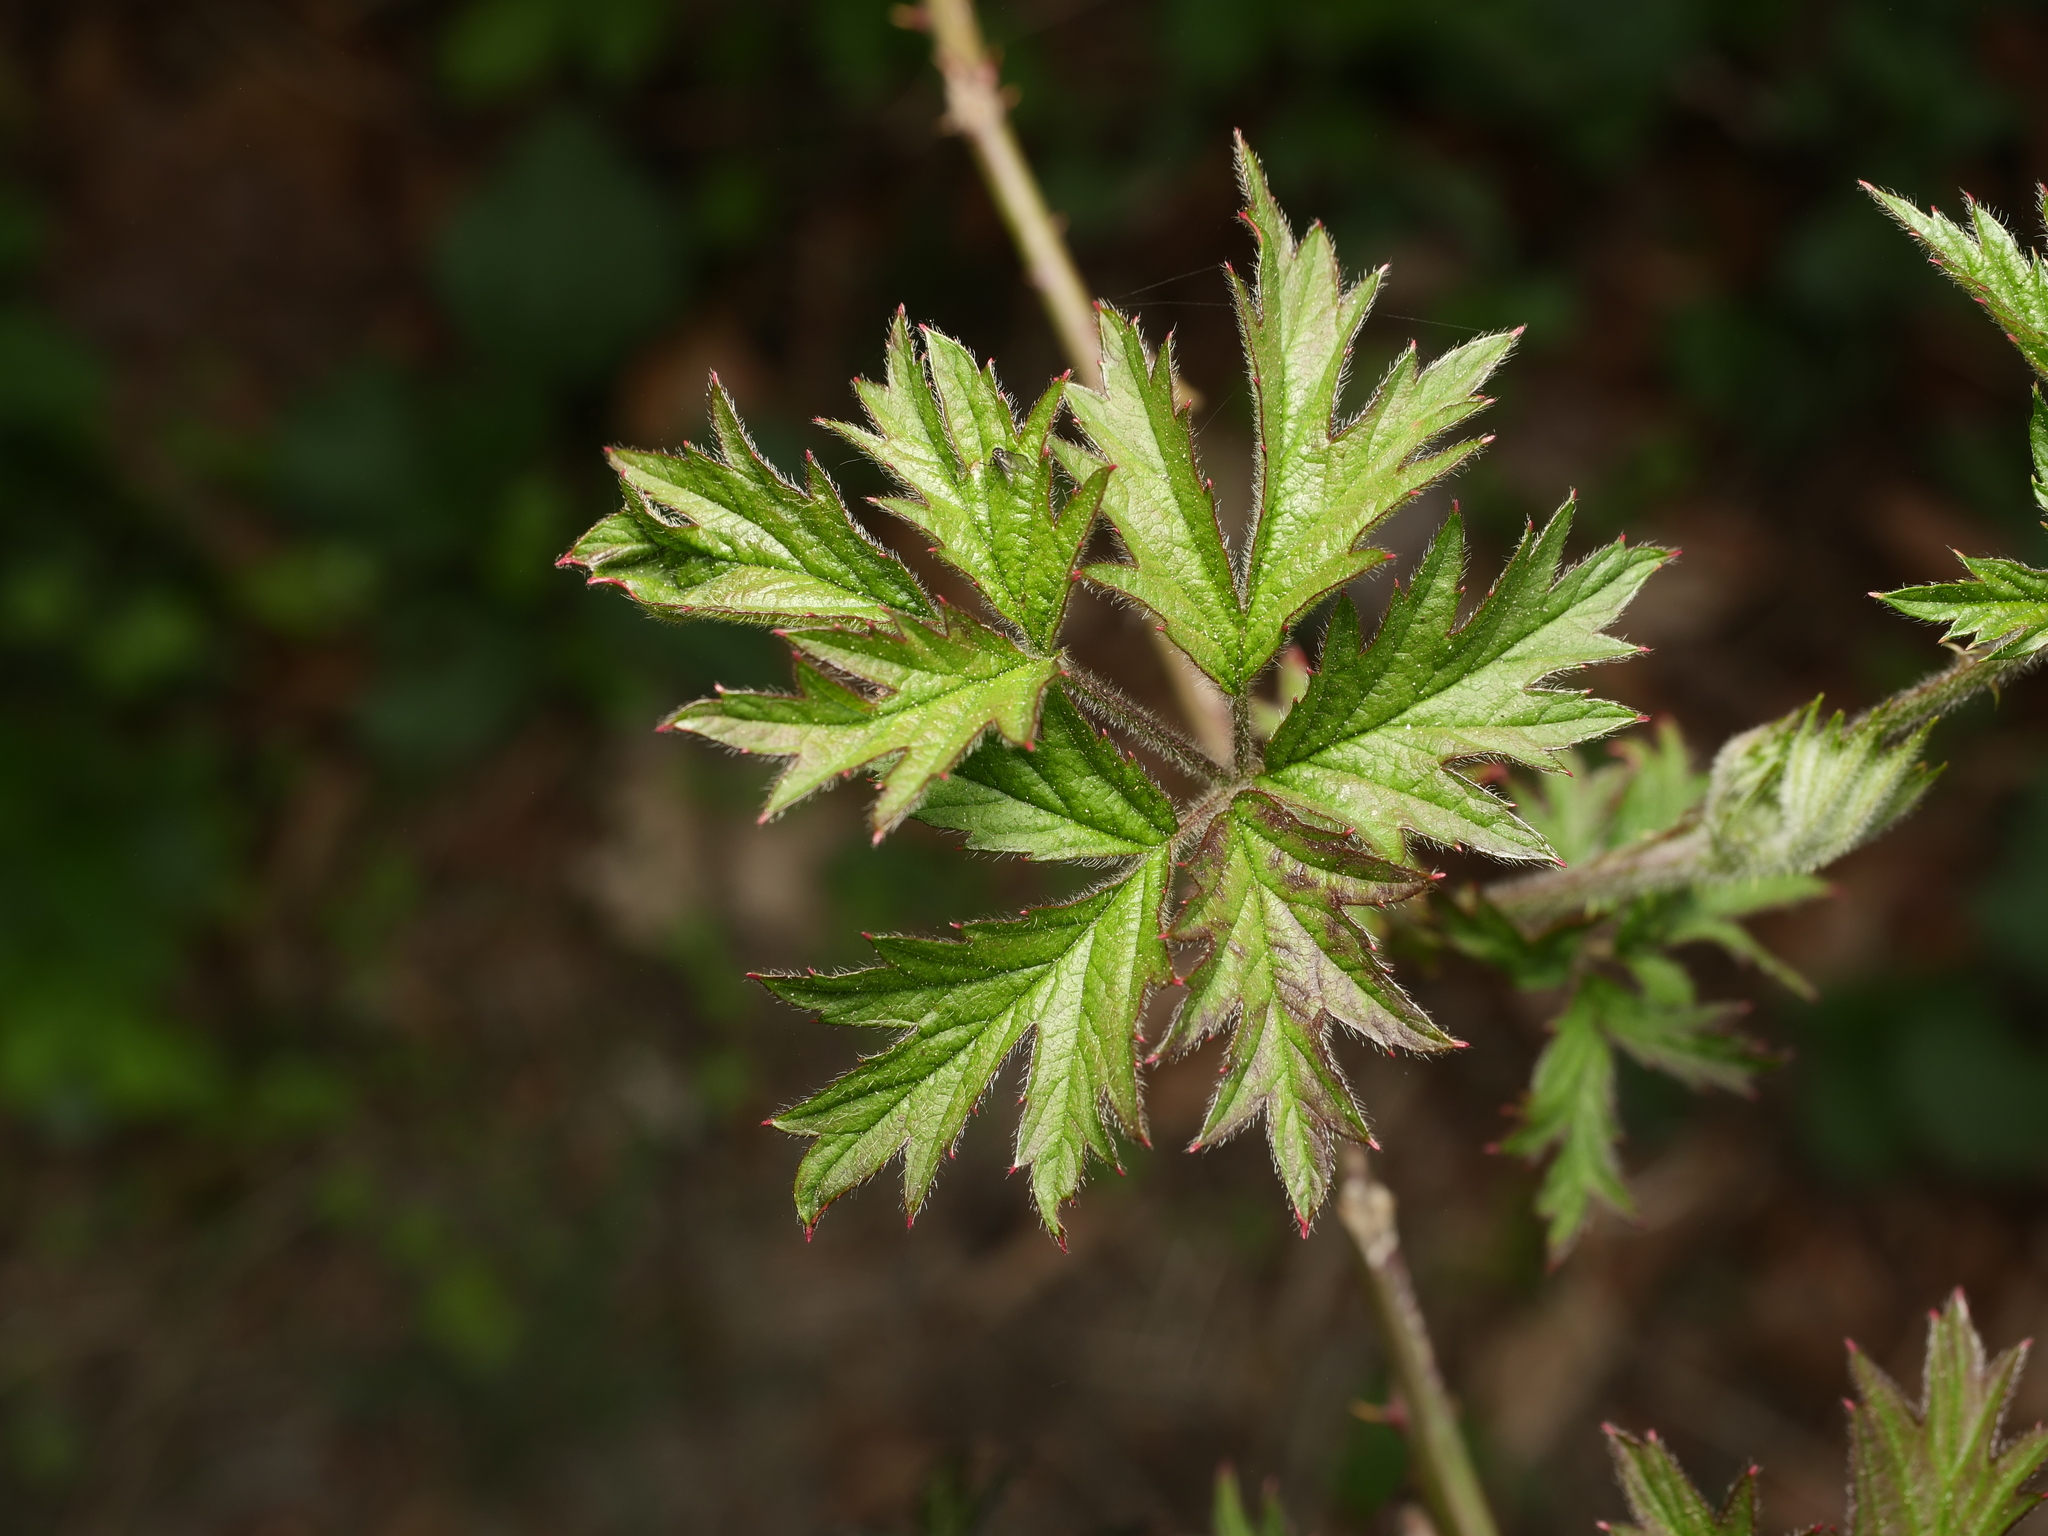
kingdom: Plantae
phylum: Tracheophyta
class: Magnoliopsida
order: Rosales
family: Rosaceae
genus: Rubus
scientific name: Rubus laciniatus
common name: Evergreen blackberry
